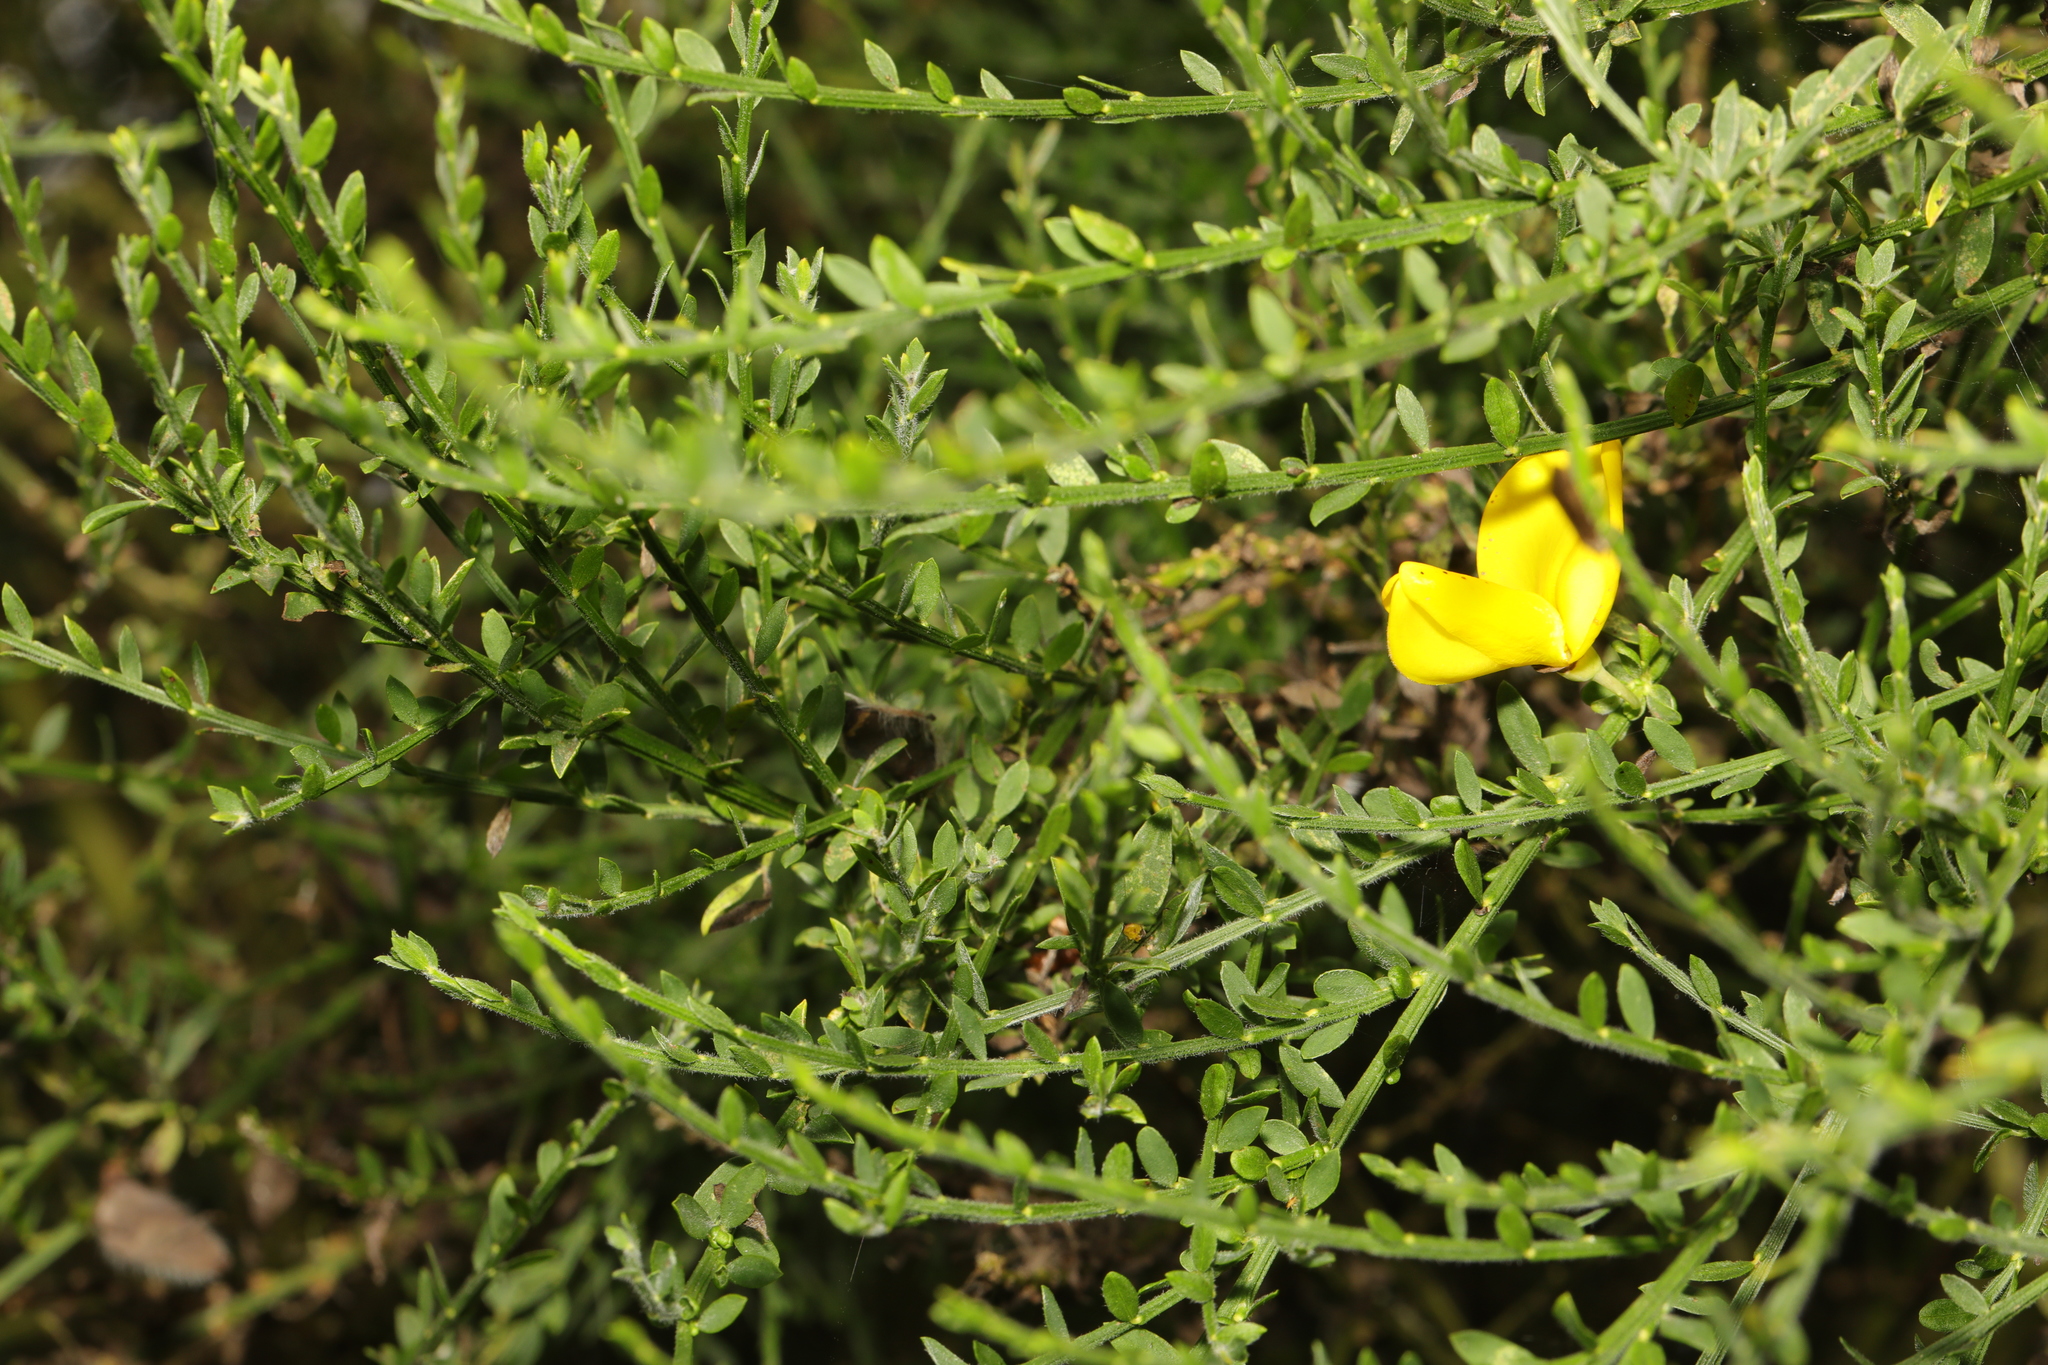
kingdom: Plantae
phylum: Tracheophyta
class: Magnoliopsida
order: Fabales
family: Fabaceae
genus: Cytisus
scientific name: Cytisus scoparius
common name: Scotch broom
